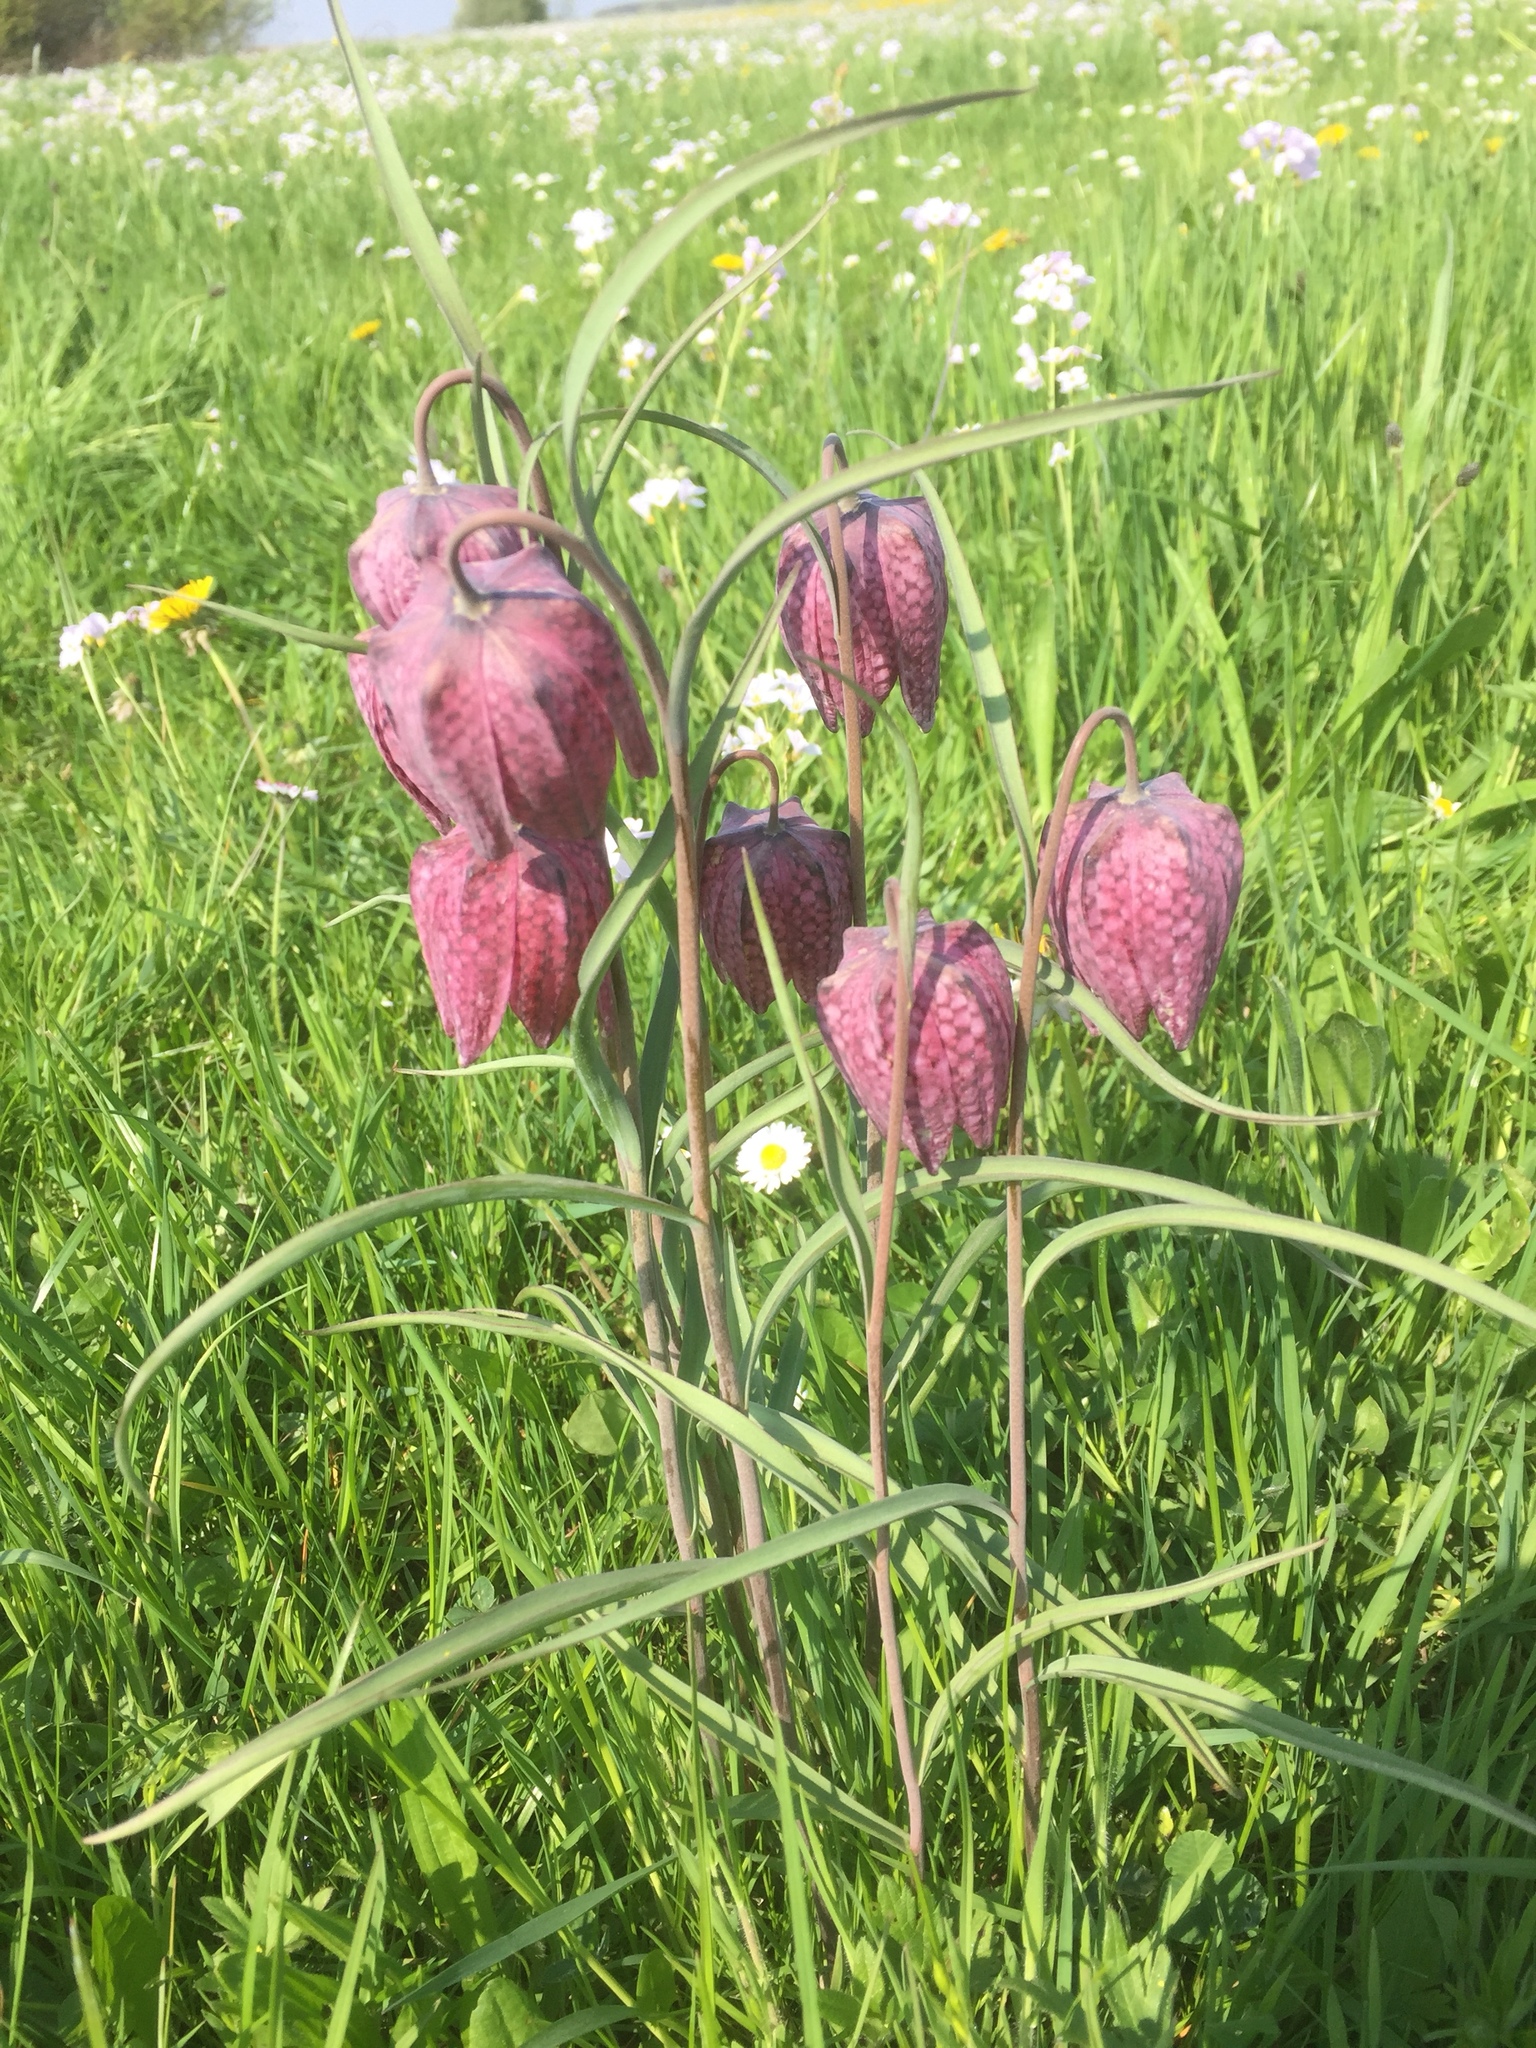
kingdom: Plantae
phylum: Tracheophyta
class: Liliopsida
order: Liliales
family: Liliaceae
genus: Fritillaria
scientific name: Fritillaria meleagris
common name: Fritillary
